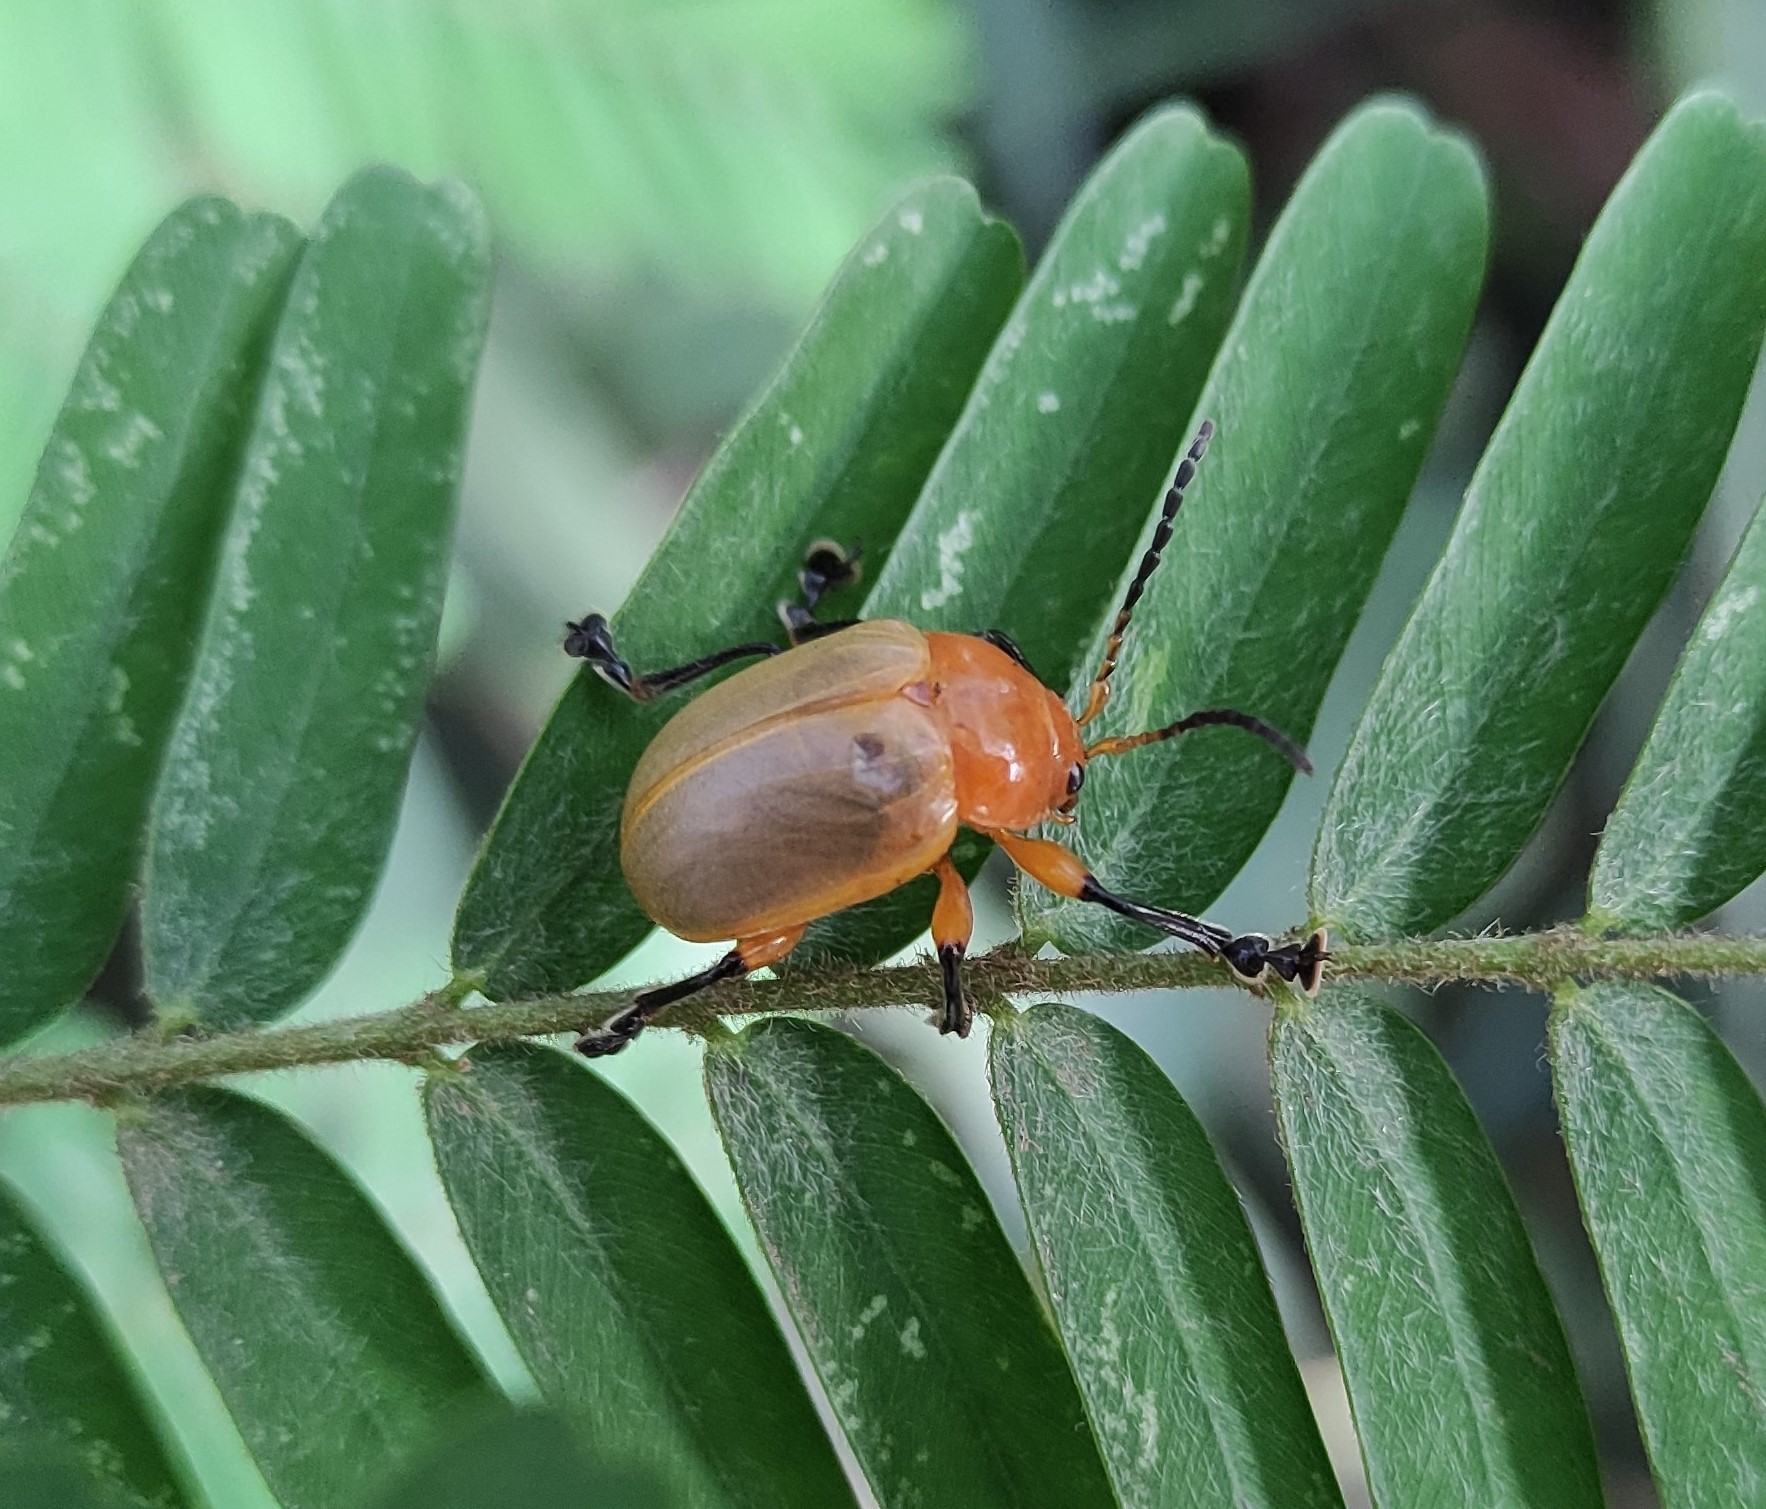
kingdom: Animalia
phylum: Arthropoda
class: Insecta
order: Coleoptera
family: Chrysomelidae
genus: Crimissa
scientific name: Crimissa
